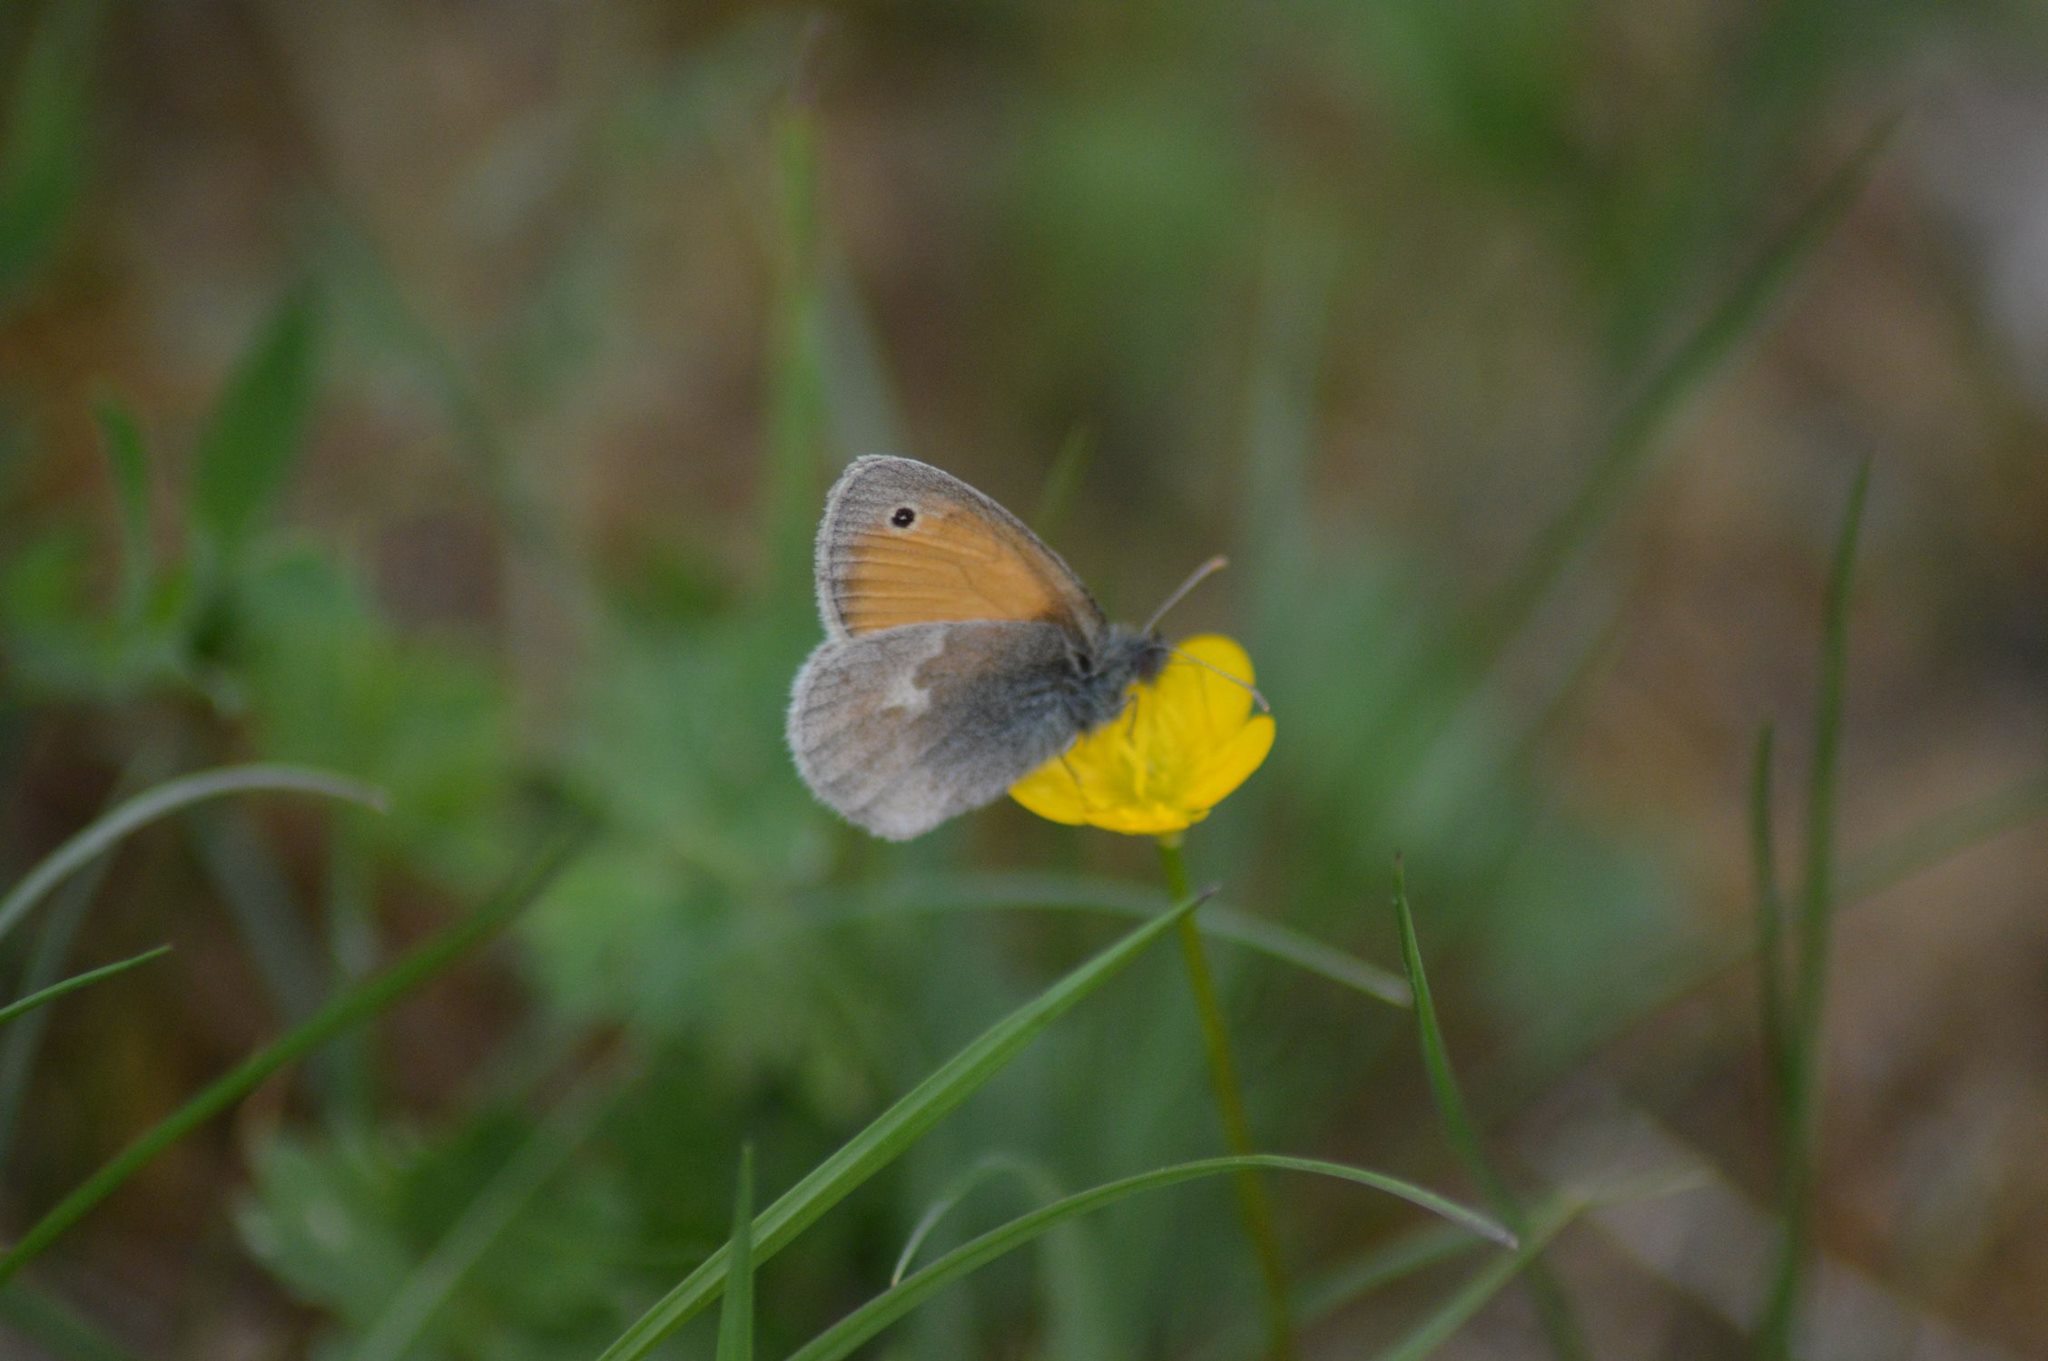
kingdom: Animalia
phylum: Arthropoda
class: Insecta
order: Lepidoptera
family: Nymphalidae
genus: Coenonympha
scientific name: Coenonympha pamphilus
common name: Small heath
